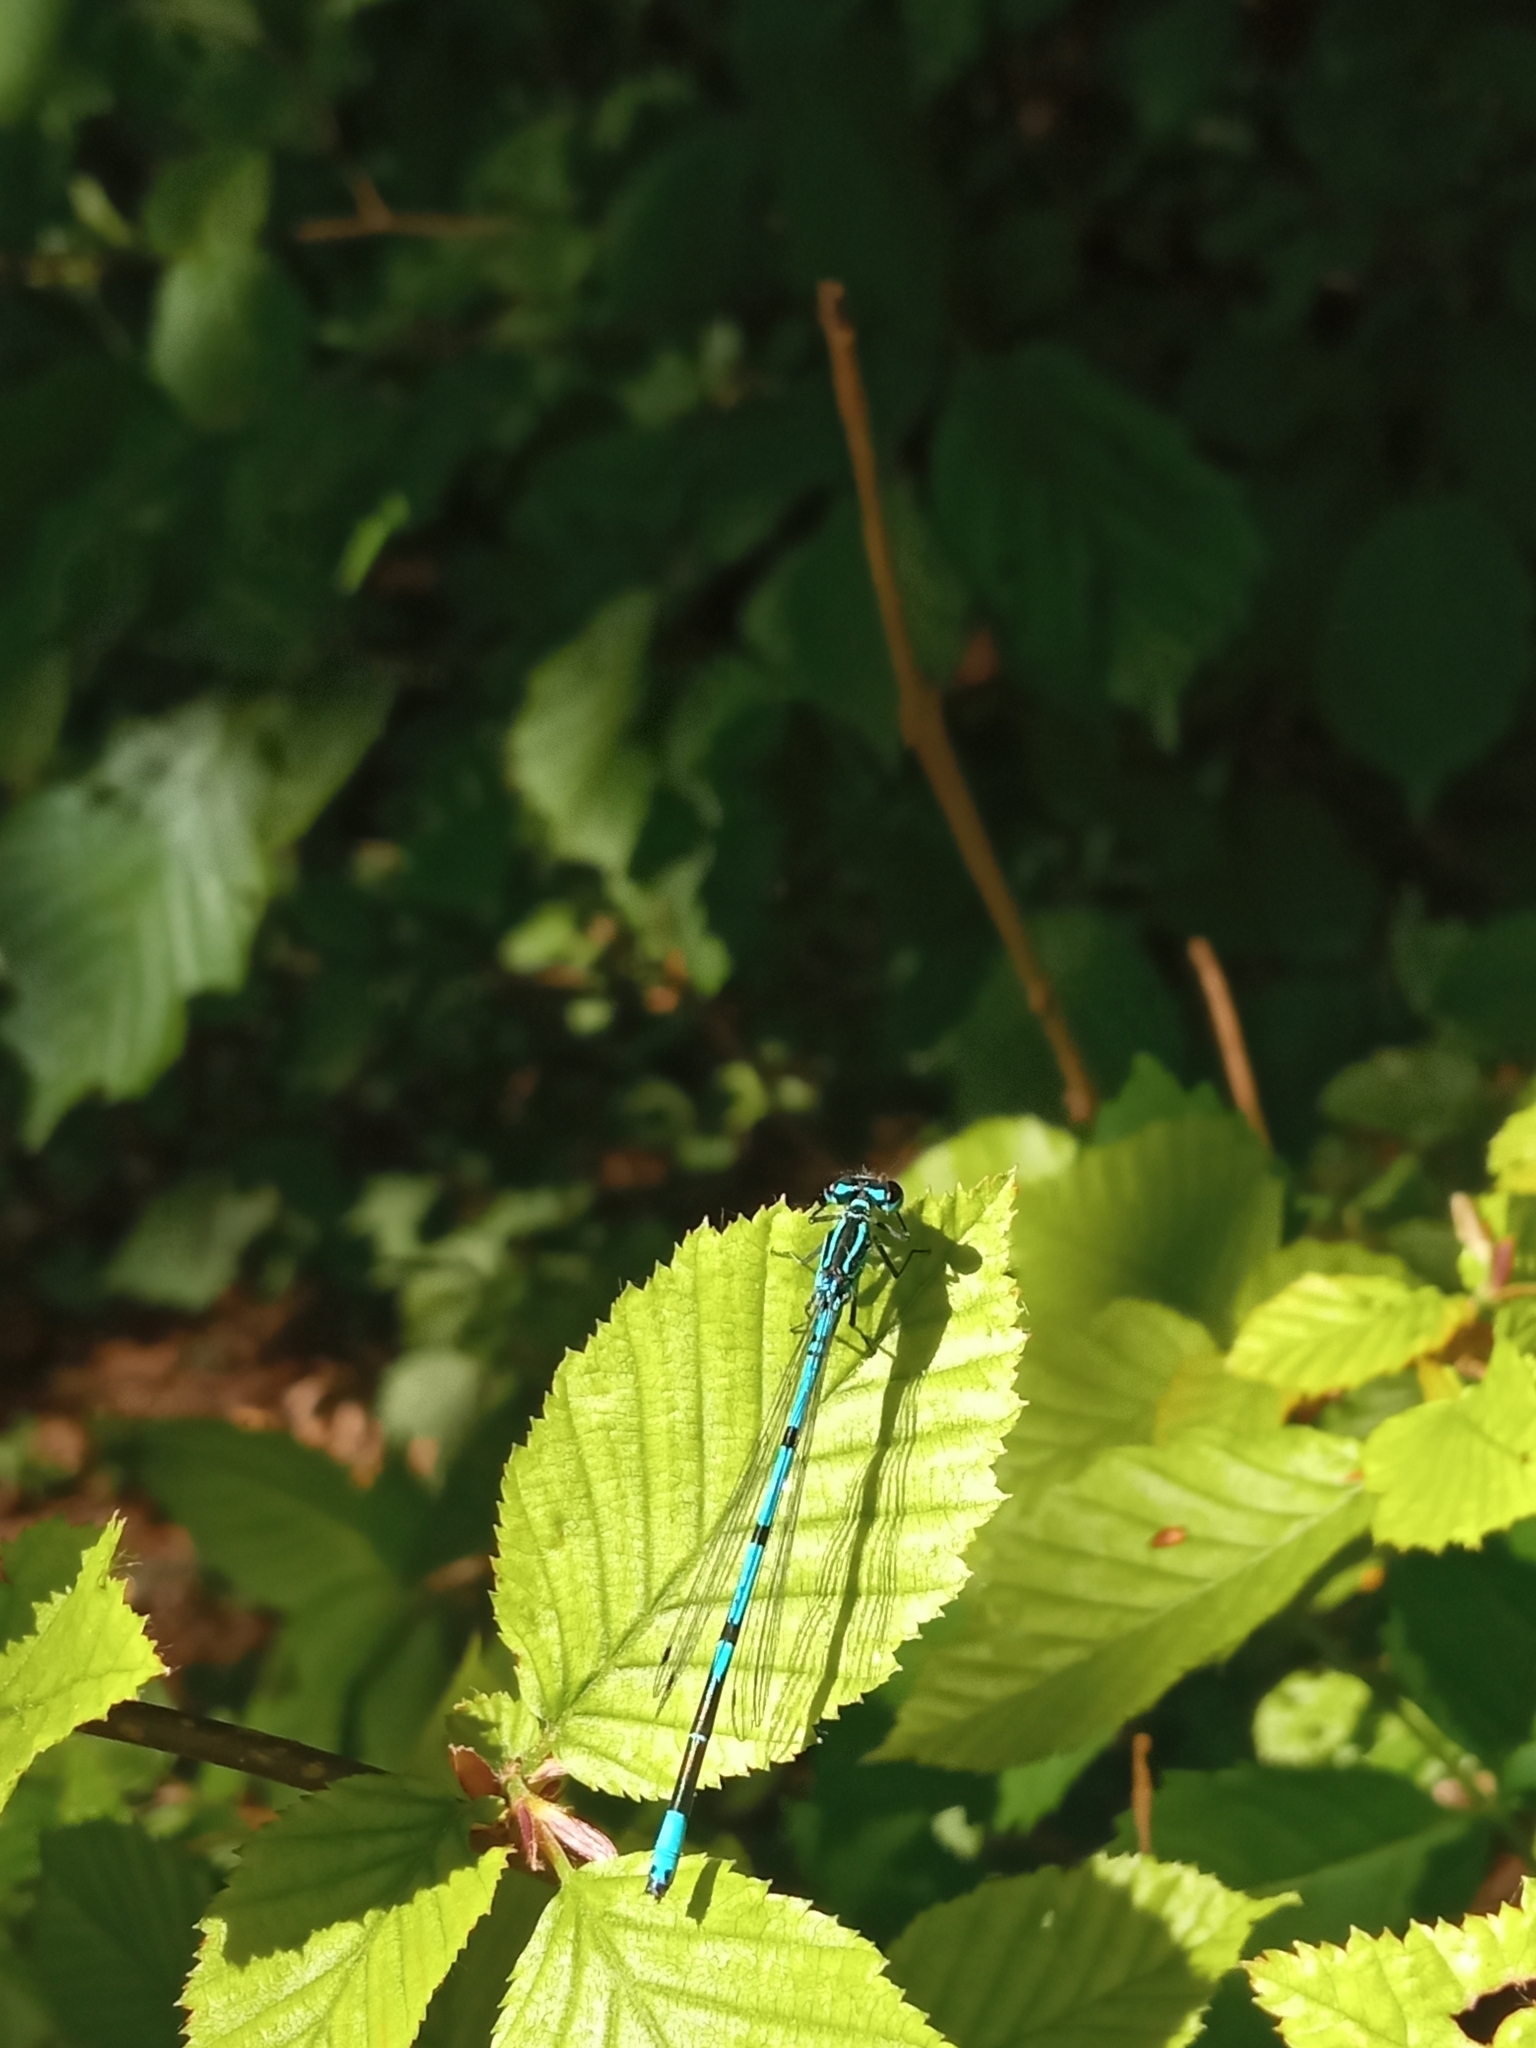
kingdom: Animalia
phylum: Arthropoda
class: Insecta
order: Odonata
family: Coenagrionidae
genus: Coenagrion
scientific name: Coenagrion puella
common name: Azure damselfly
